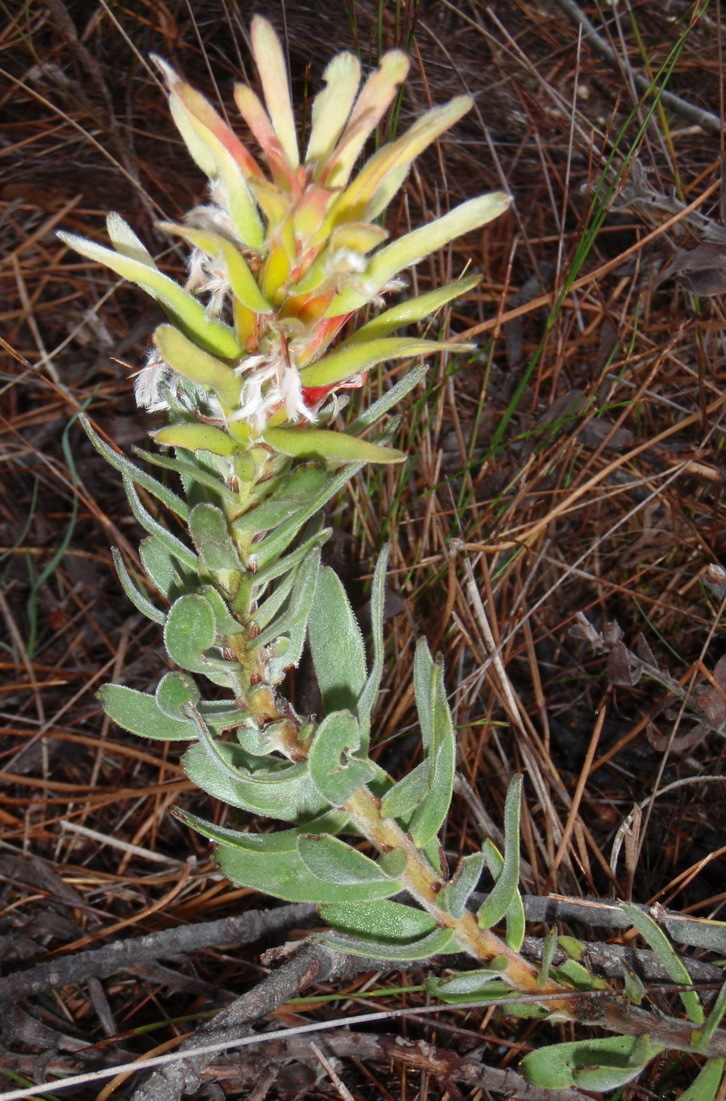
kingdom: Plantae
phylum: Tracheophyta
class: Magnoliopsida
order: Proteales
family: Proteaceae
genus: Mimetes
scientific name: Mimetes cucullatus
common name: Common pagoda
